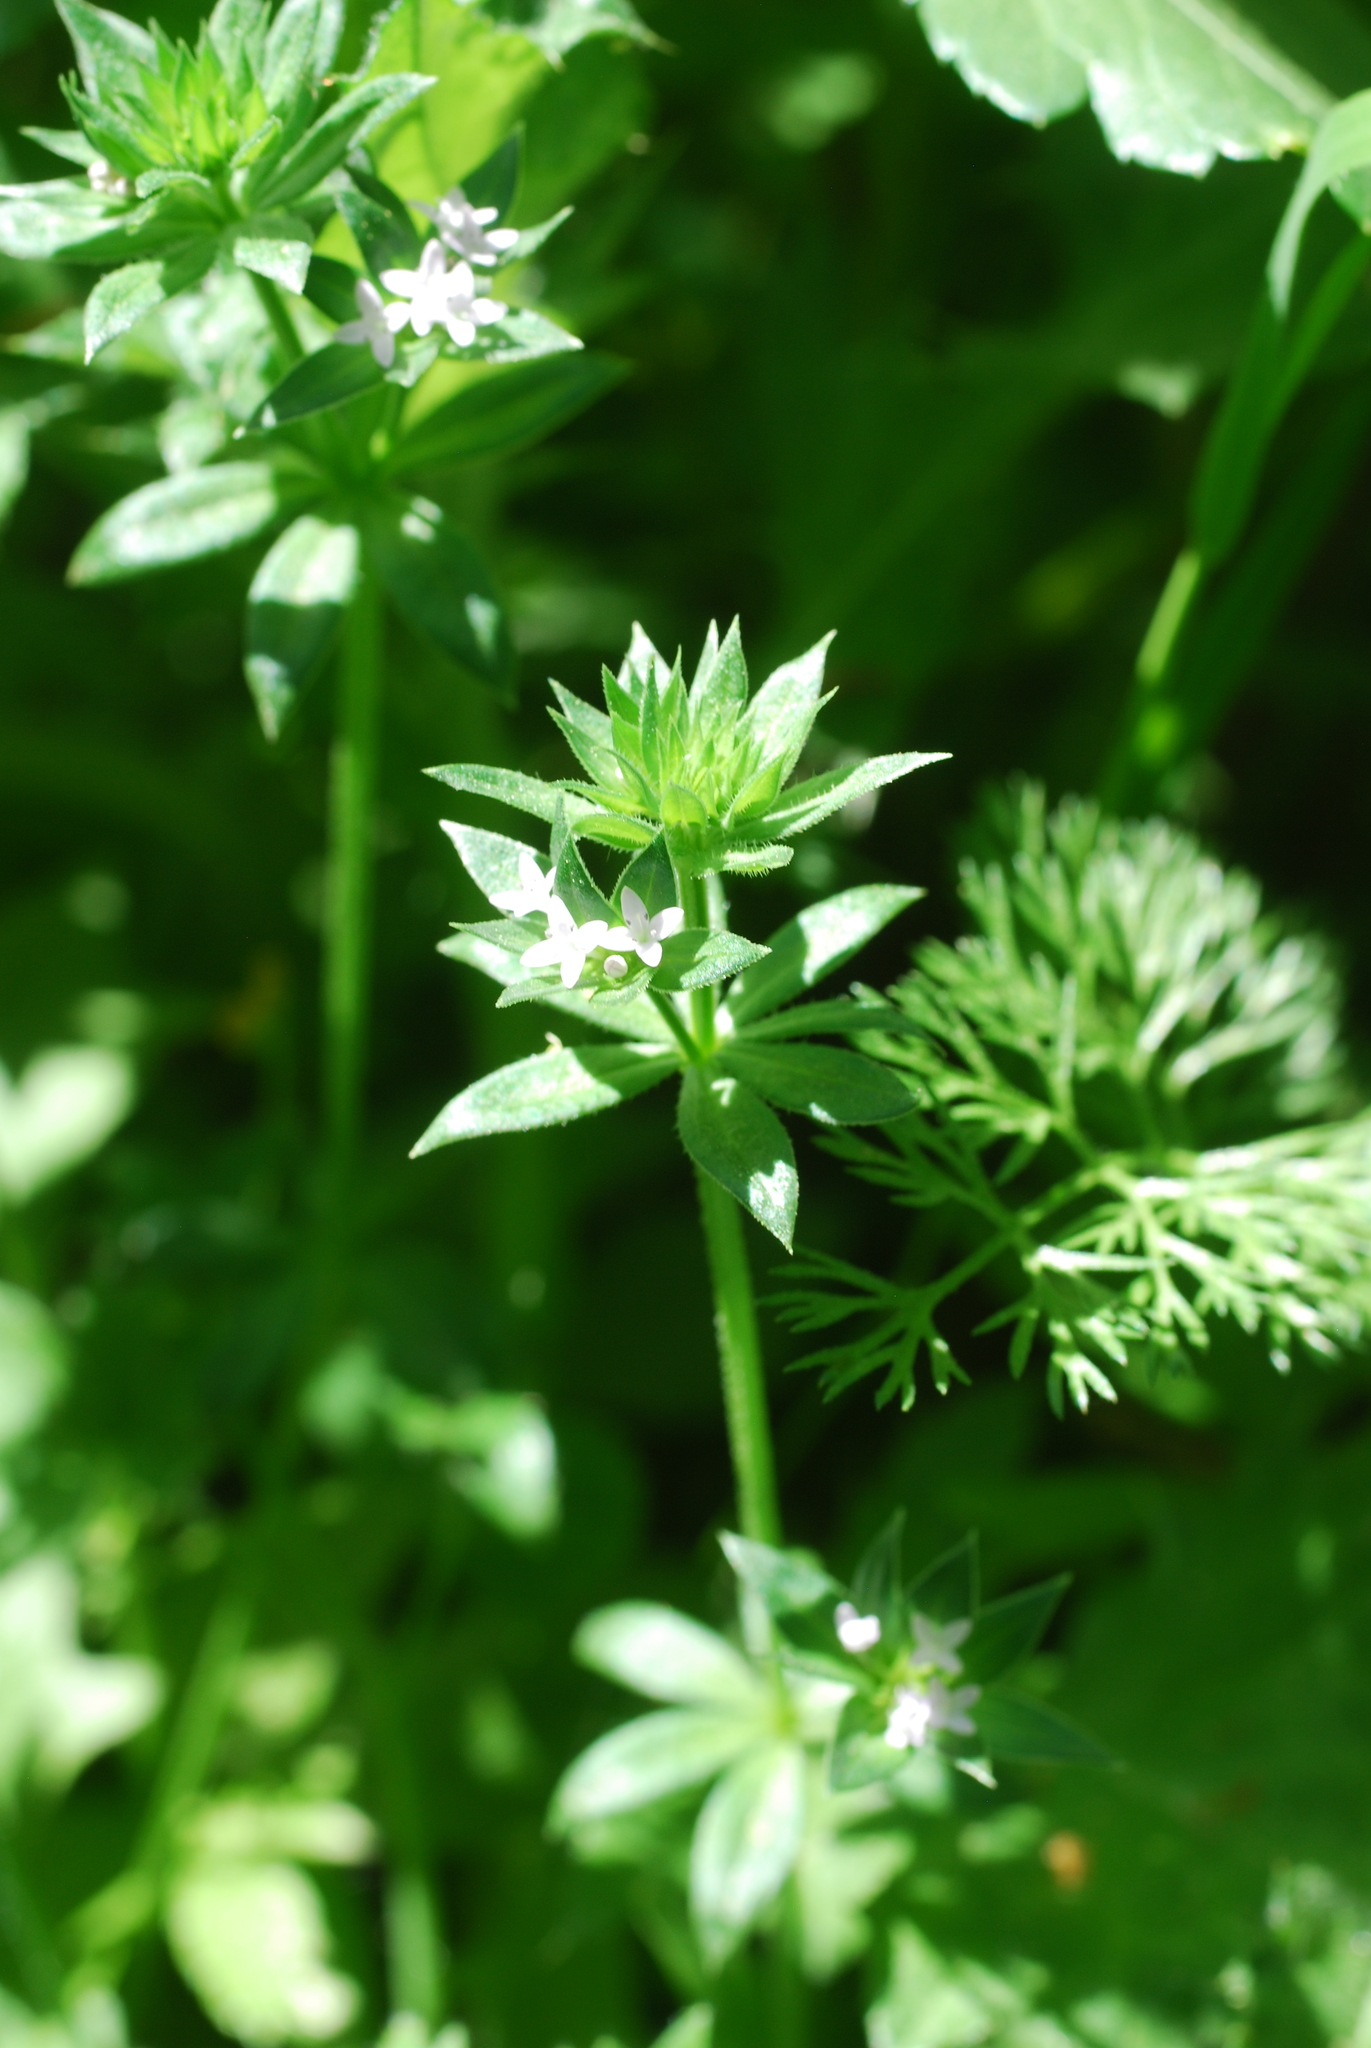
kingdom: Plantae
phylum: Tracheophyta
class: Magnoliopsida
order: Gentianales
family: Rubiaceae
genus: Sherardia
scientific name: Sherardia arvensis
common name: Field madder
